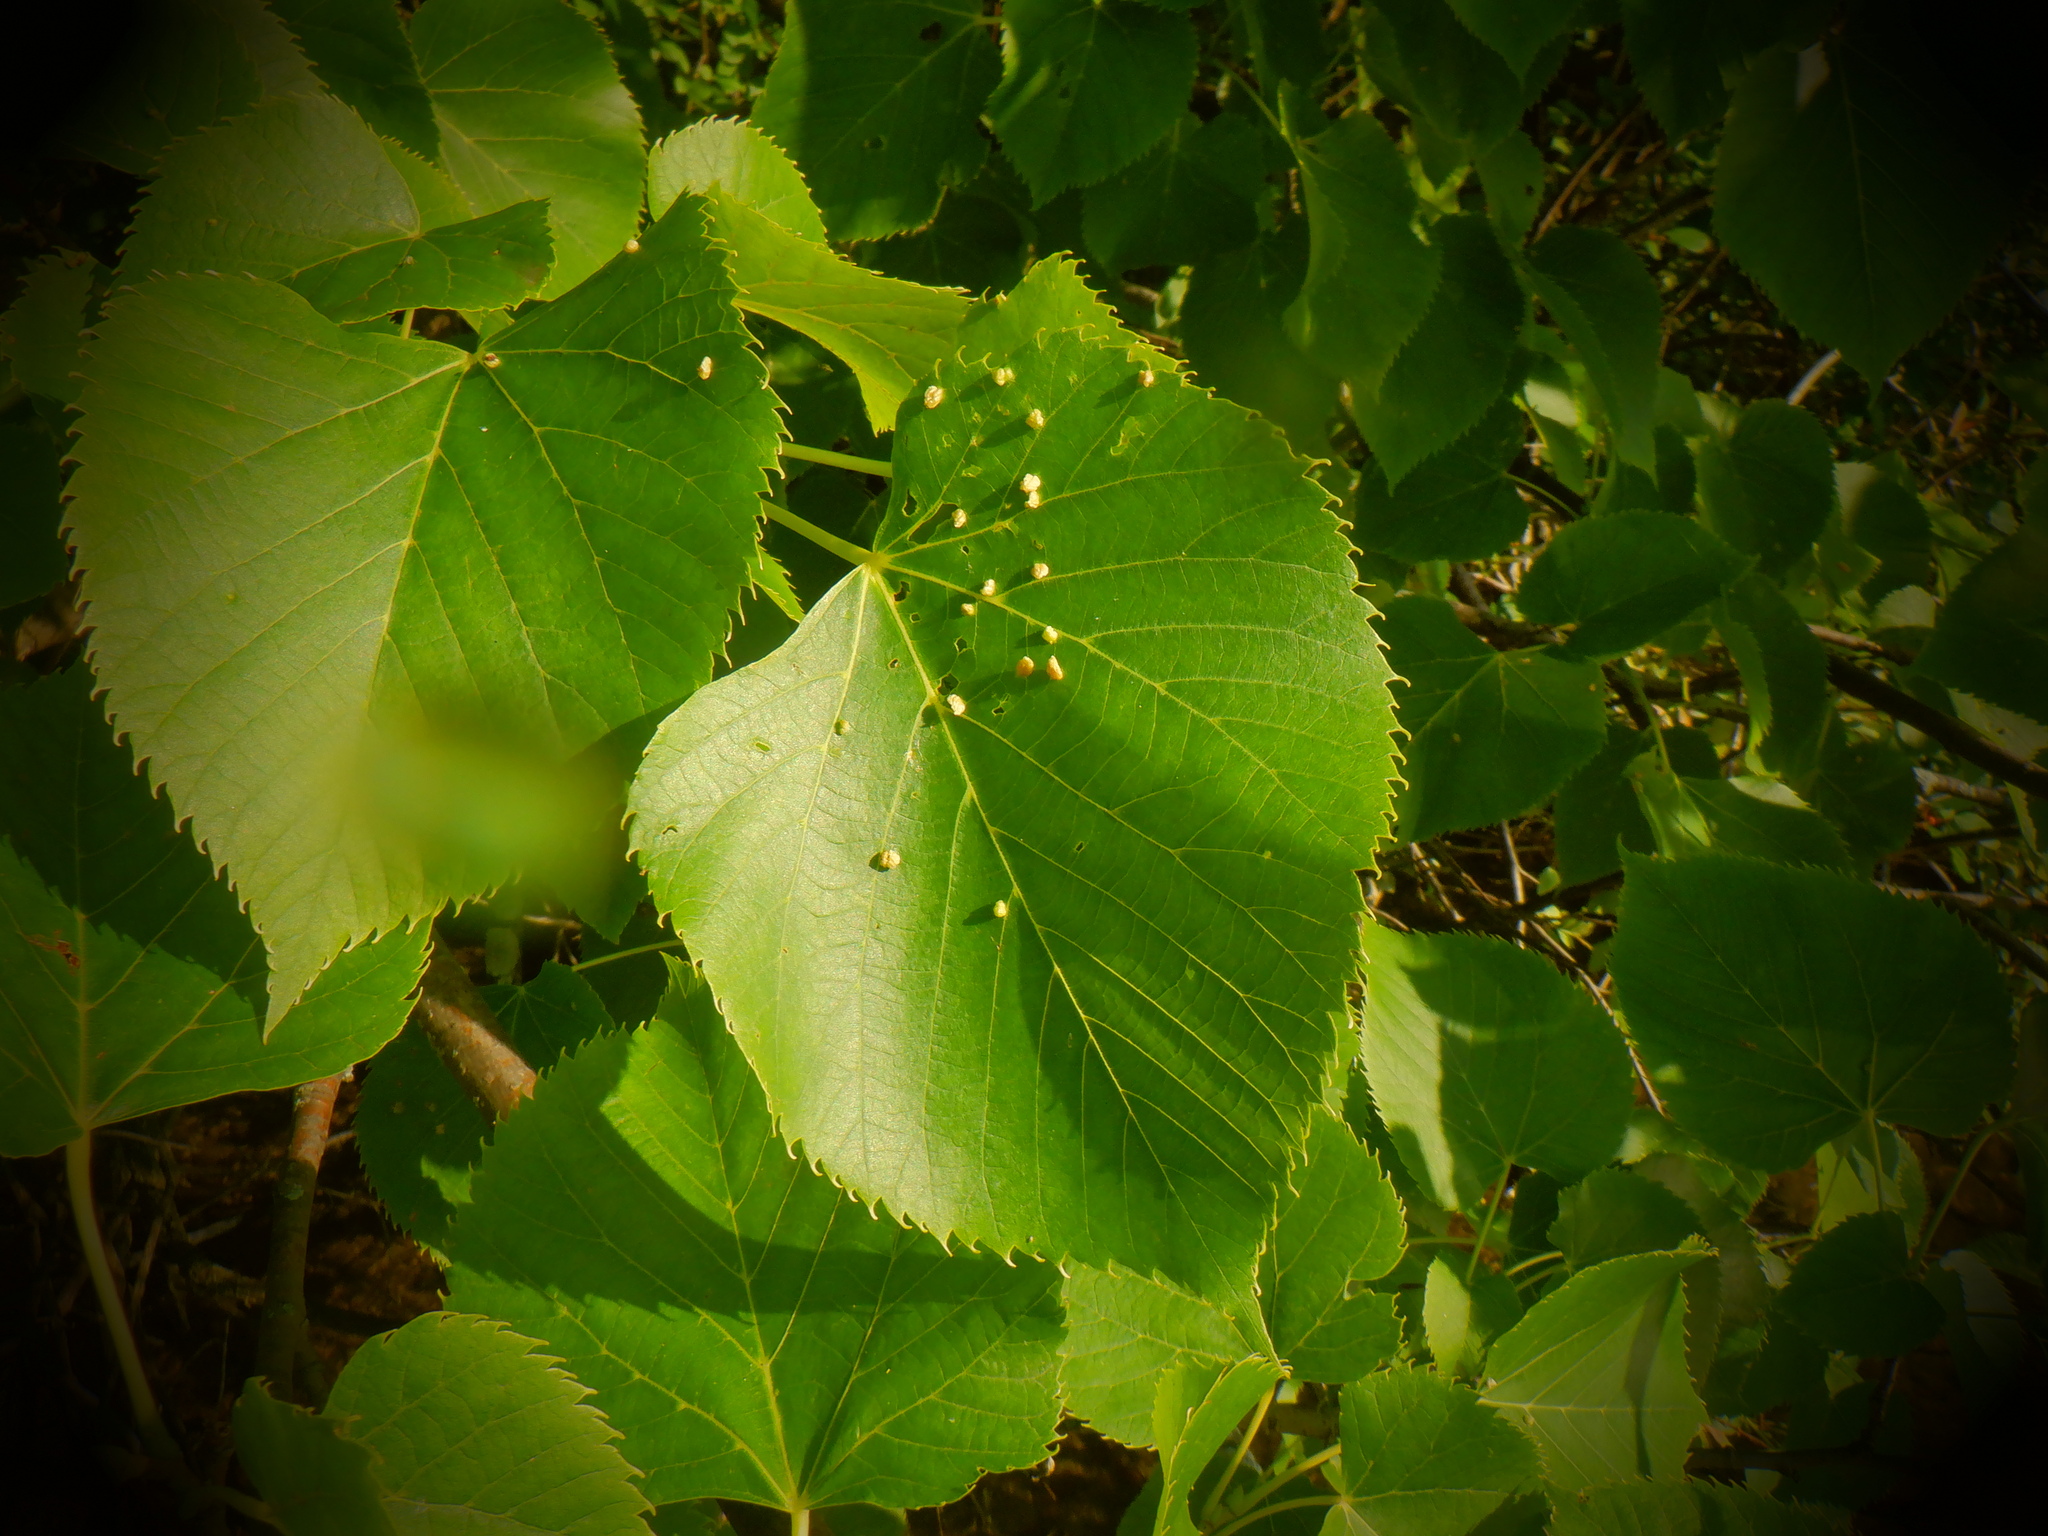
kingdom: Animalia
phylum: Arthropoda
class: Arachnida
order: Trombidiformes
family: Eriophyidae
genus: Eriophyes
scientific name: Eriophyes tiliae
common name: Red nail gall mite
